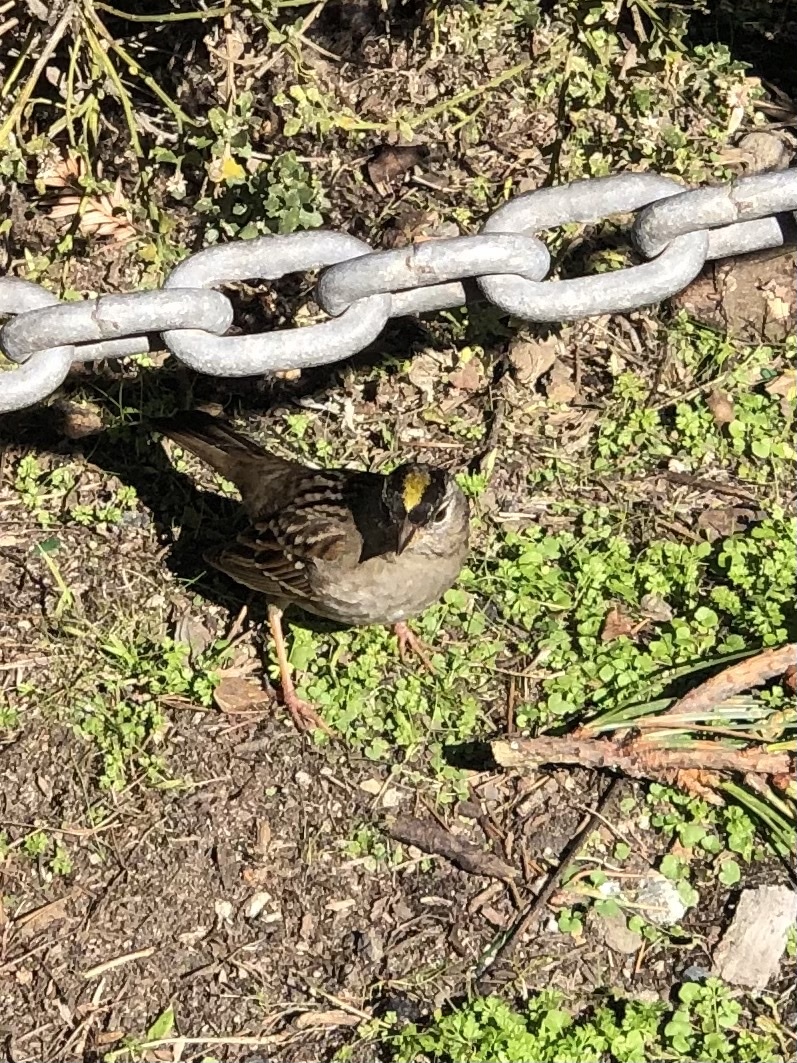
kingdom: Animalia
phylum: Chordata
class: Aves
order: Passeriformes
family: Passerellidae
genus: Zonotrichia
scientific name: Zonotrichia atricapilla
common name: Golden-crowned sparrow
